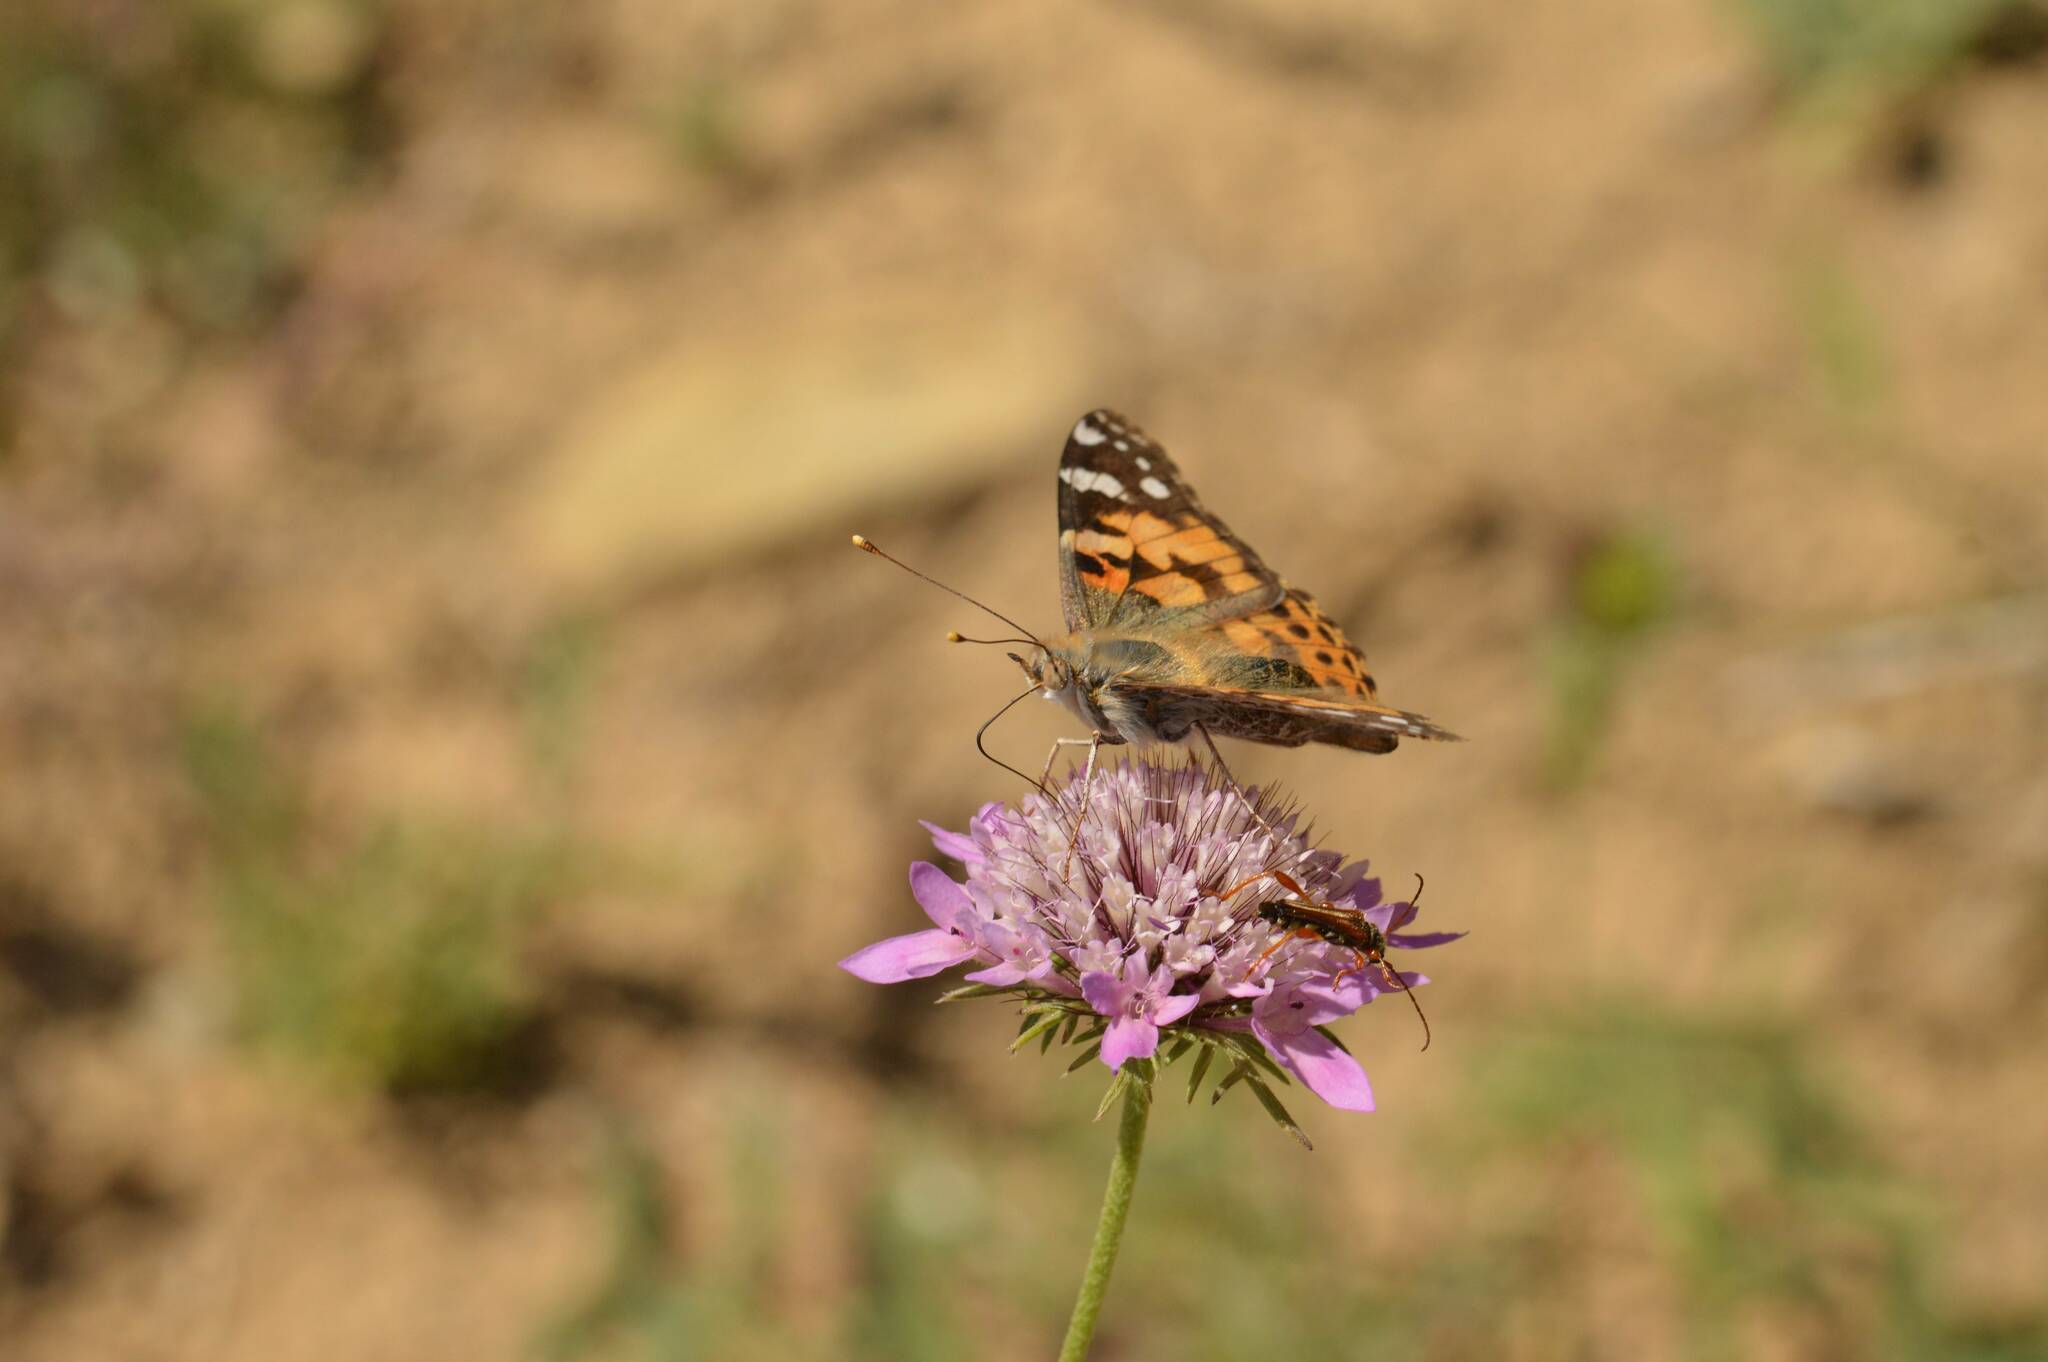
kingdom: Animalia
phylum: Arthropoda
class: Insecta
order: Lepidoptera
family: Nymphalidae
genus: Vanessa
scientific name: Vanessa cardui
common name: Painted lady
